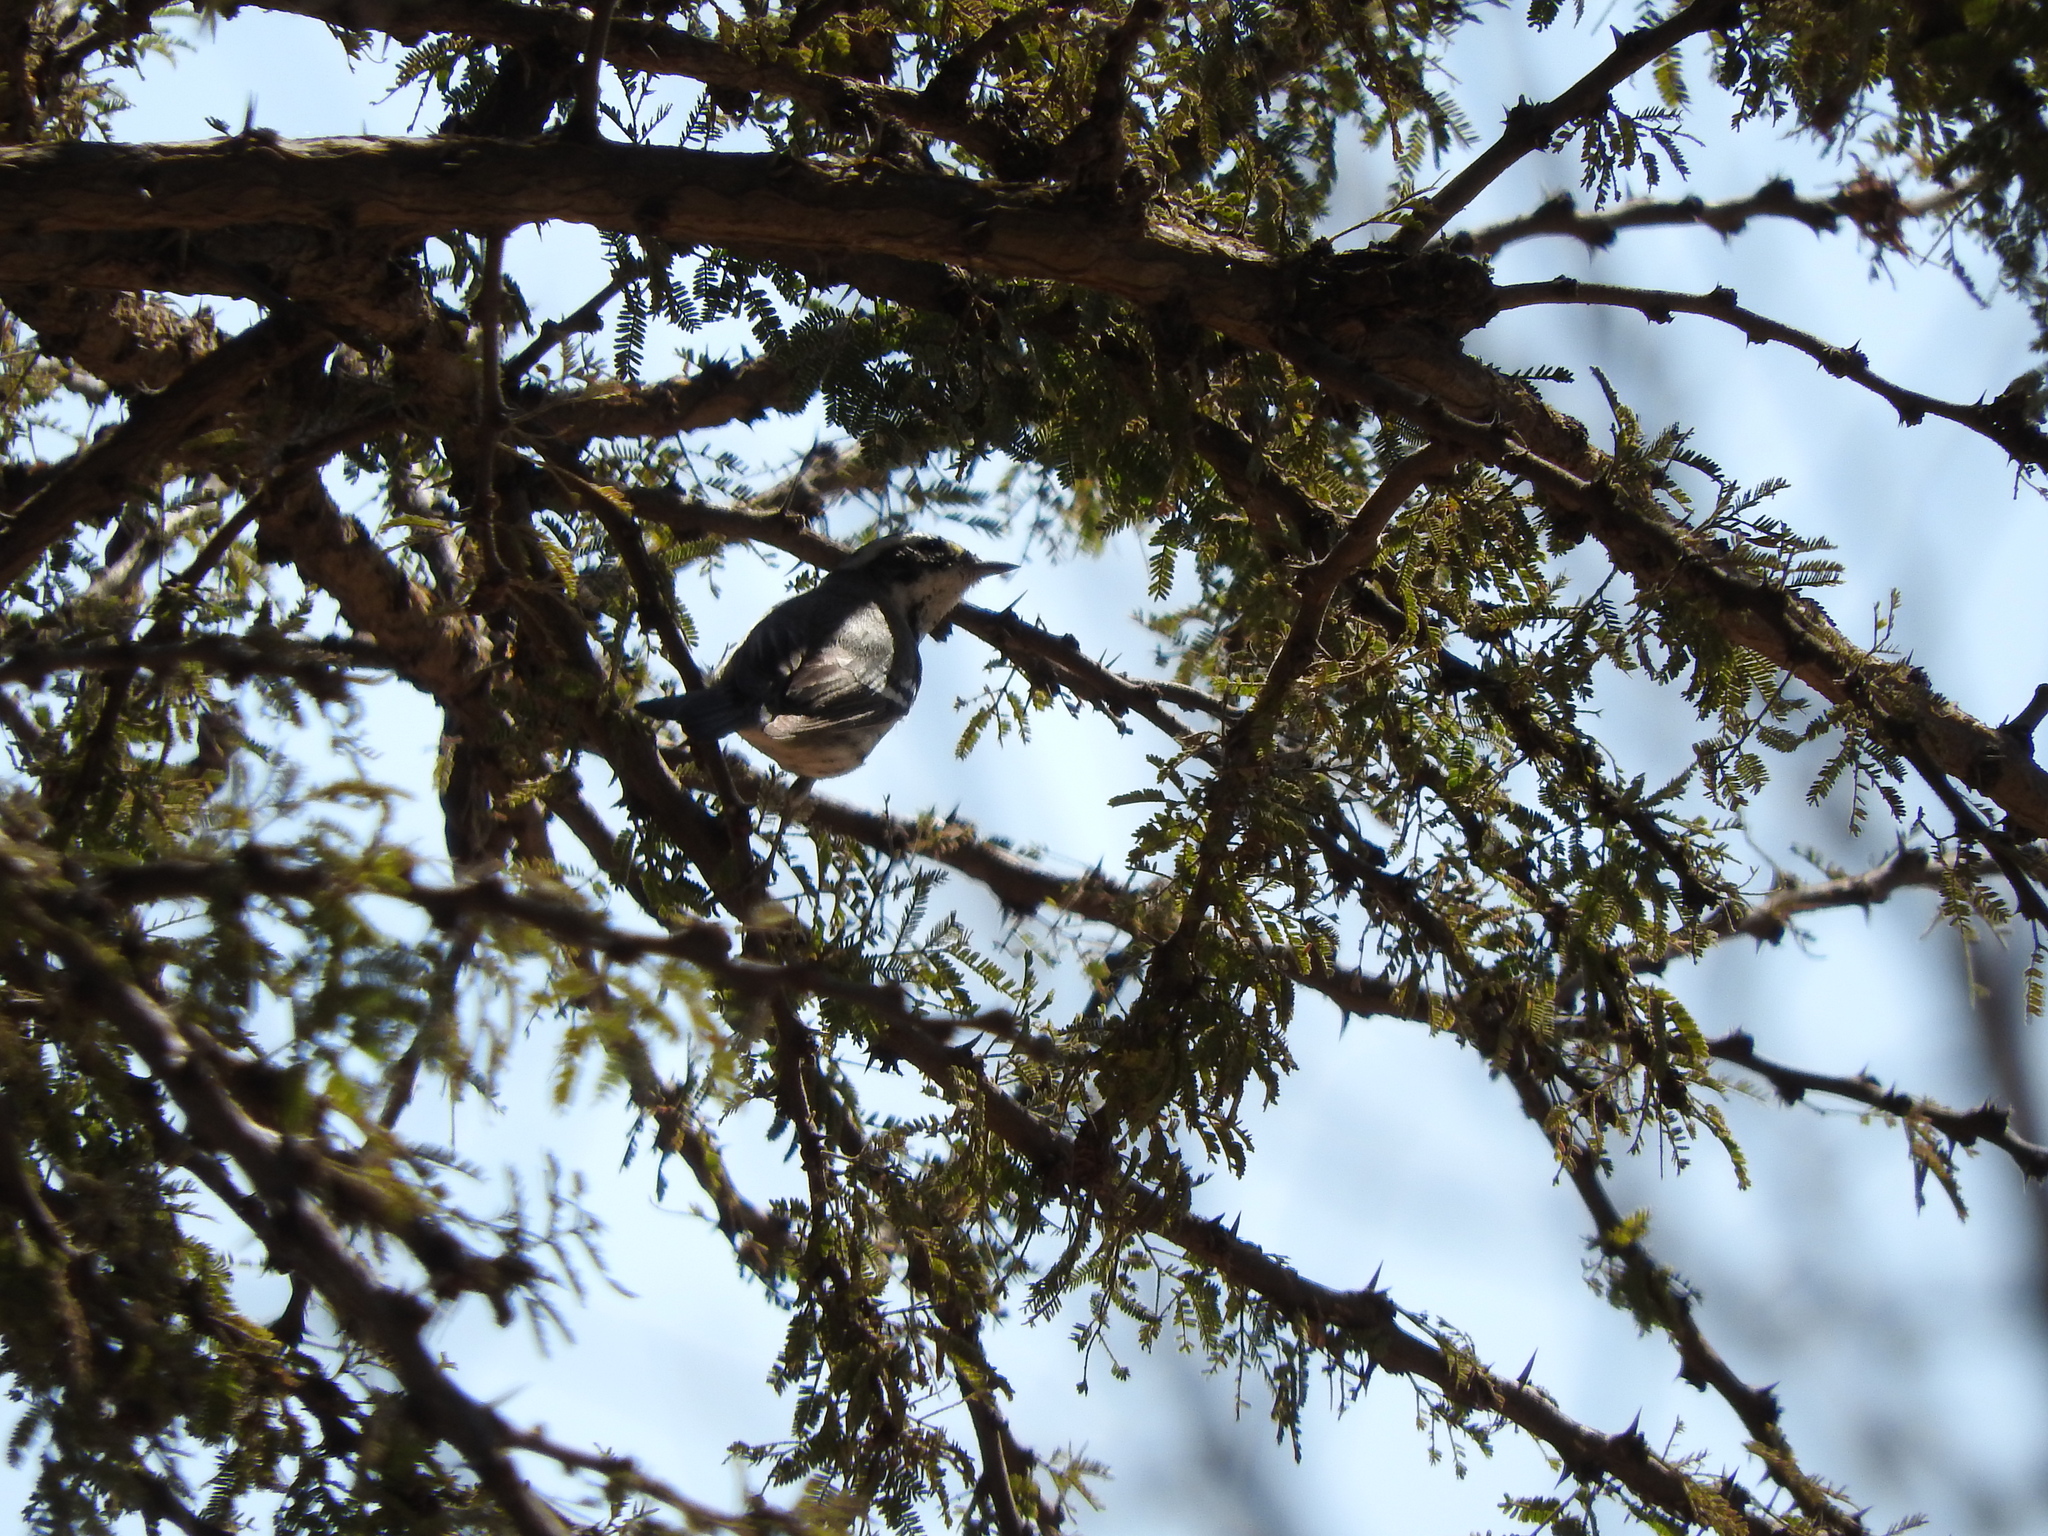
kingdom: Animalia
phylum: Chordata
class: Aves
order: Passeriformes
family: Parulidae
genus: Setophaga
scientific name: Setophaga nigrescens
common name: Black-throated gray warbler
